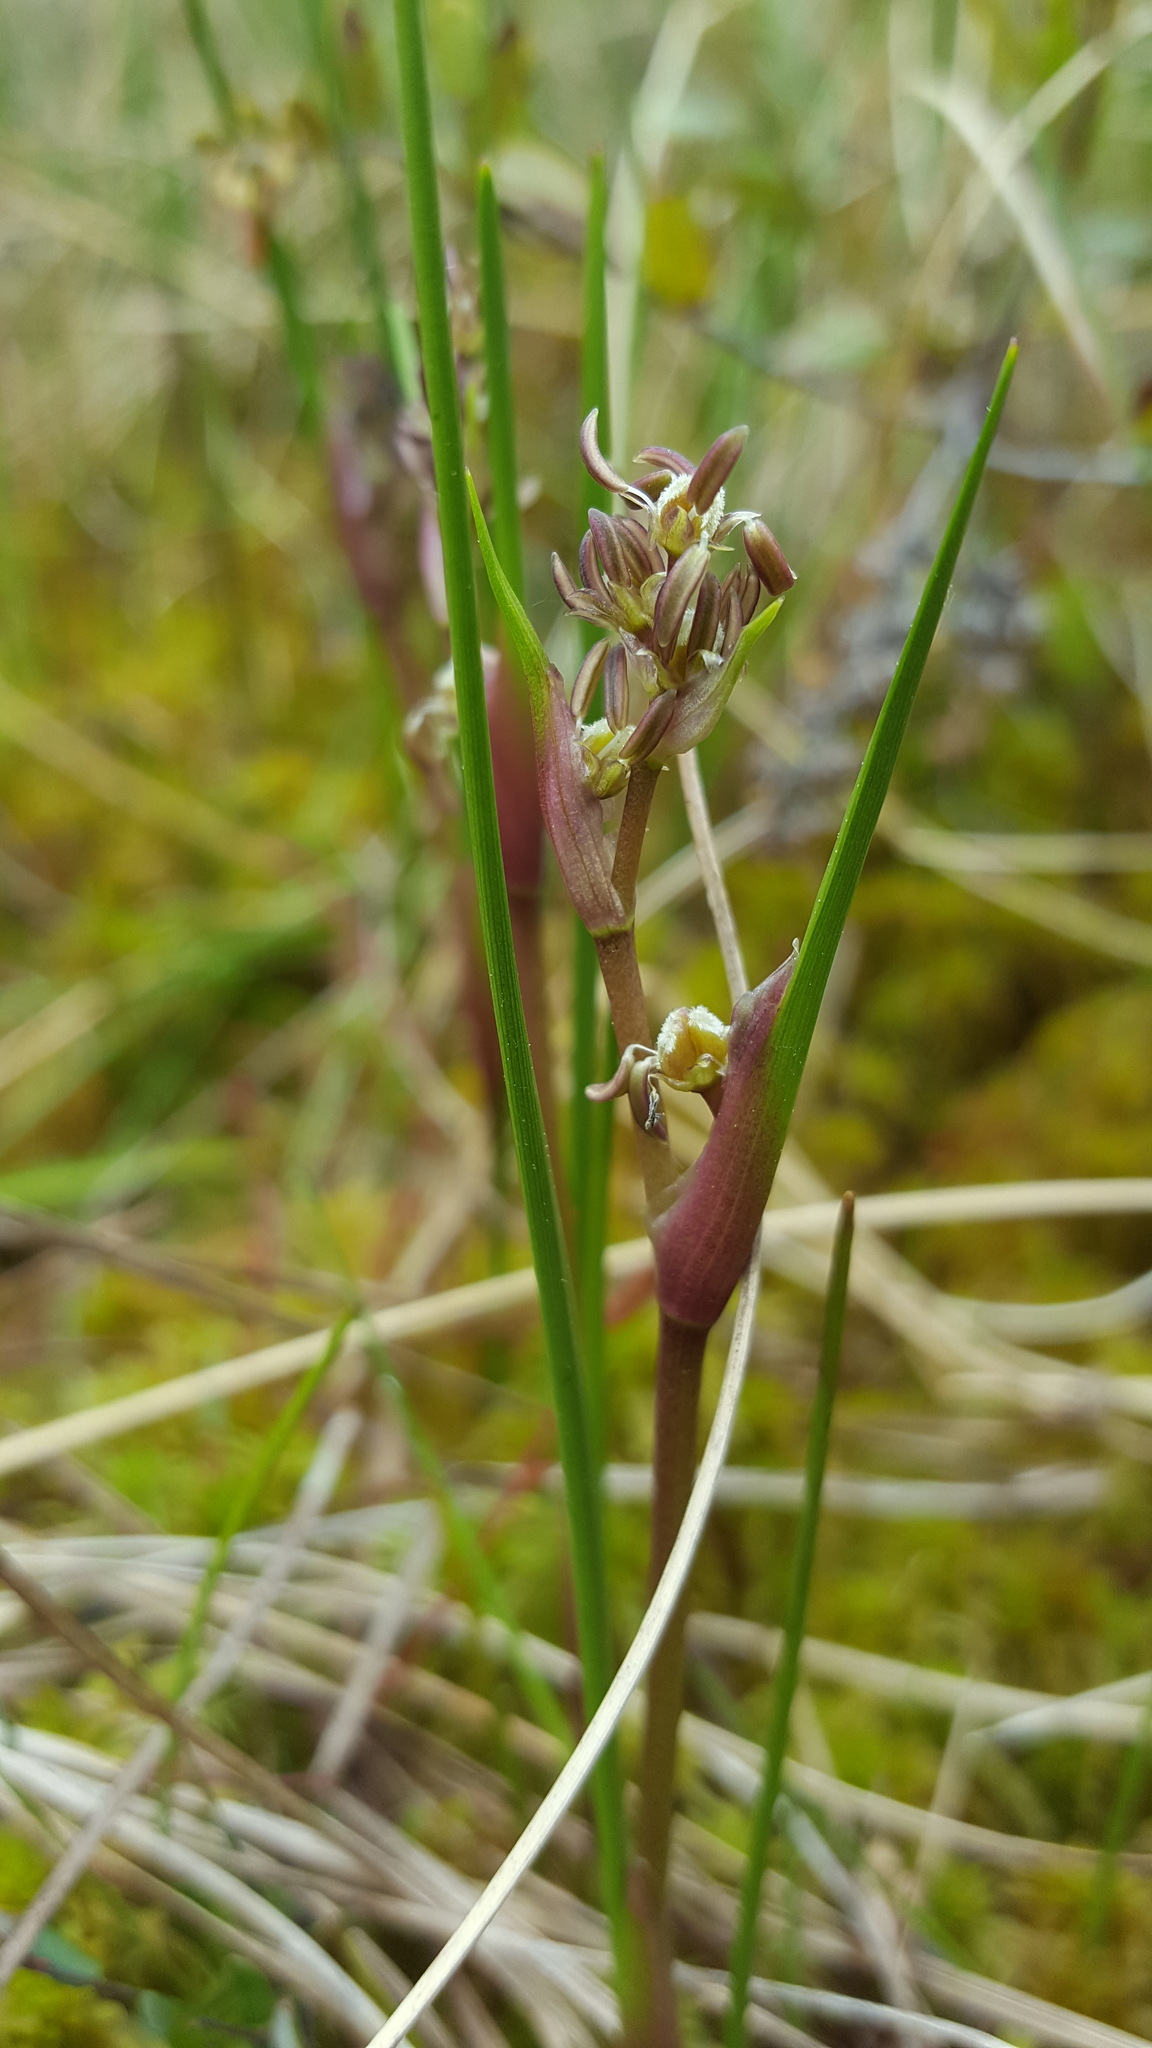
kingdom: Plantae
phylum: Tracheophyta
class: Liliopsida
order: Alismatales
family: Scheuchzeriaceae
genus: Scheuchzeria
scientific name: Scheuchzeria palustris
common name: Rannoch-rush
